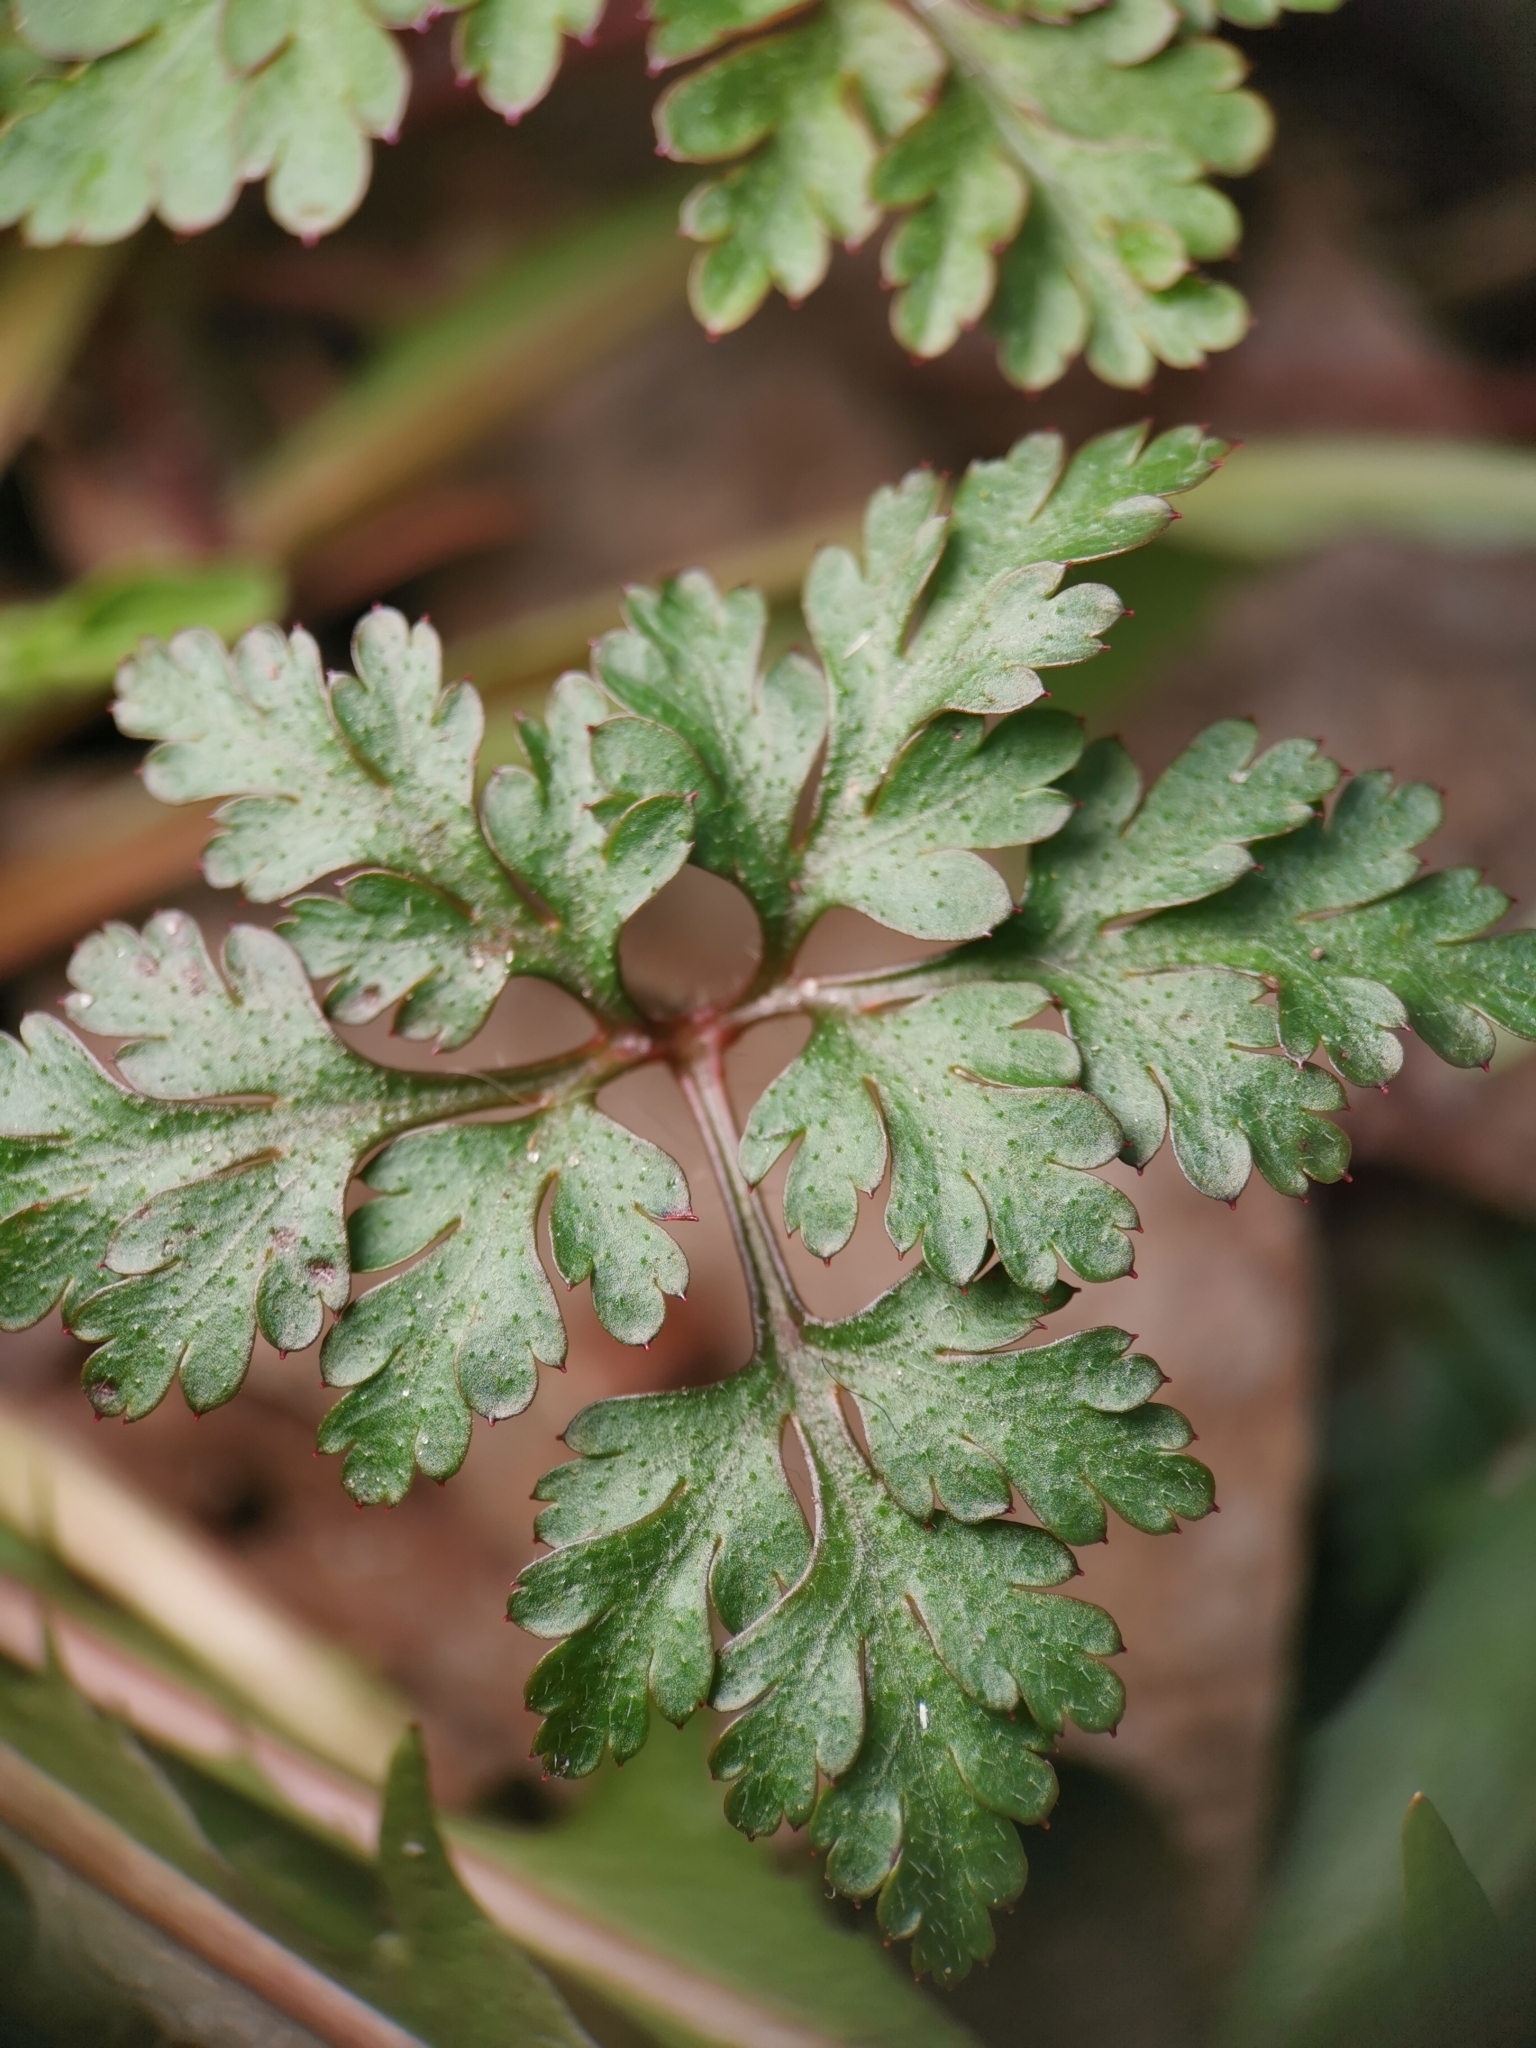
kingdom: Plantae
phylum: Tracheophyta
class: Magnoliopsida
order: Geraniales
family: Geraniaceae
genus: Geranium
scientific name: Geranium robertianum
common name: Herb-robert
